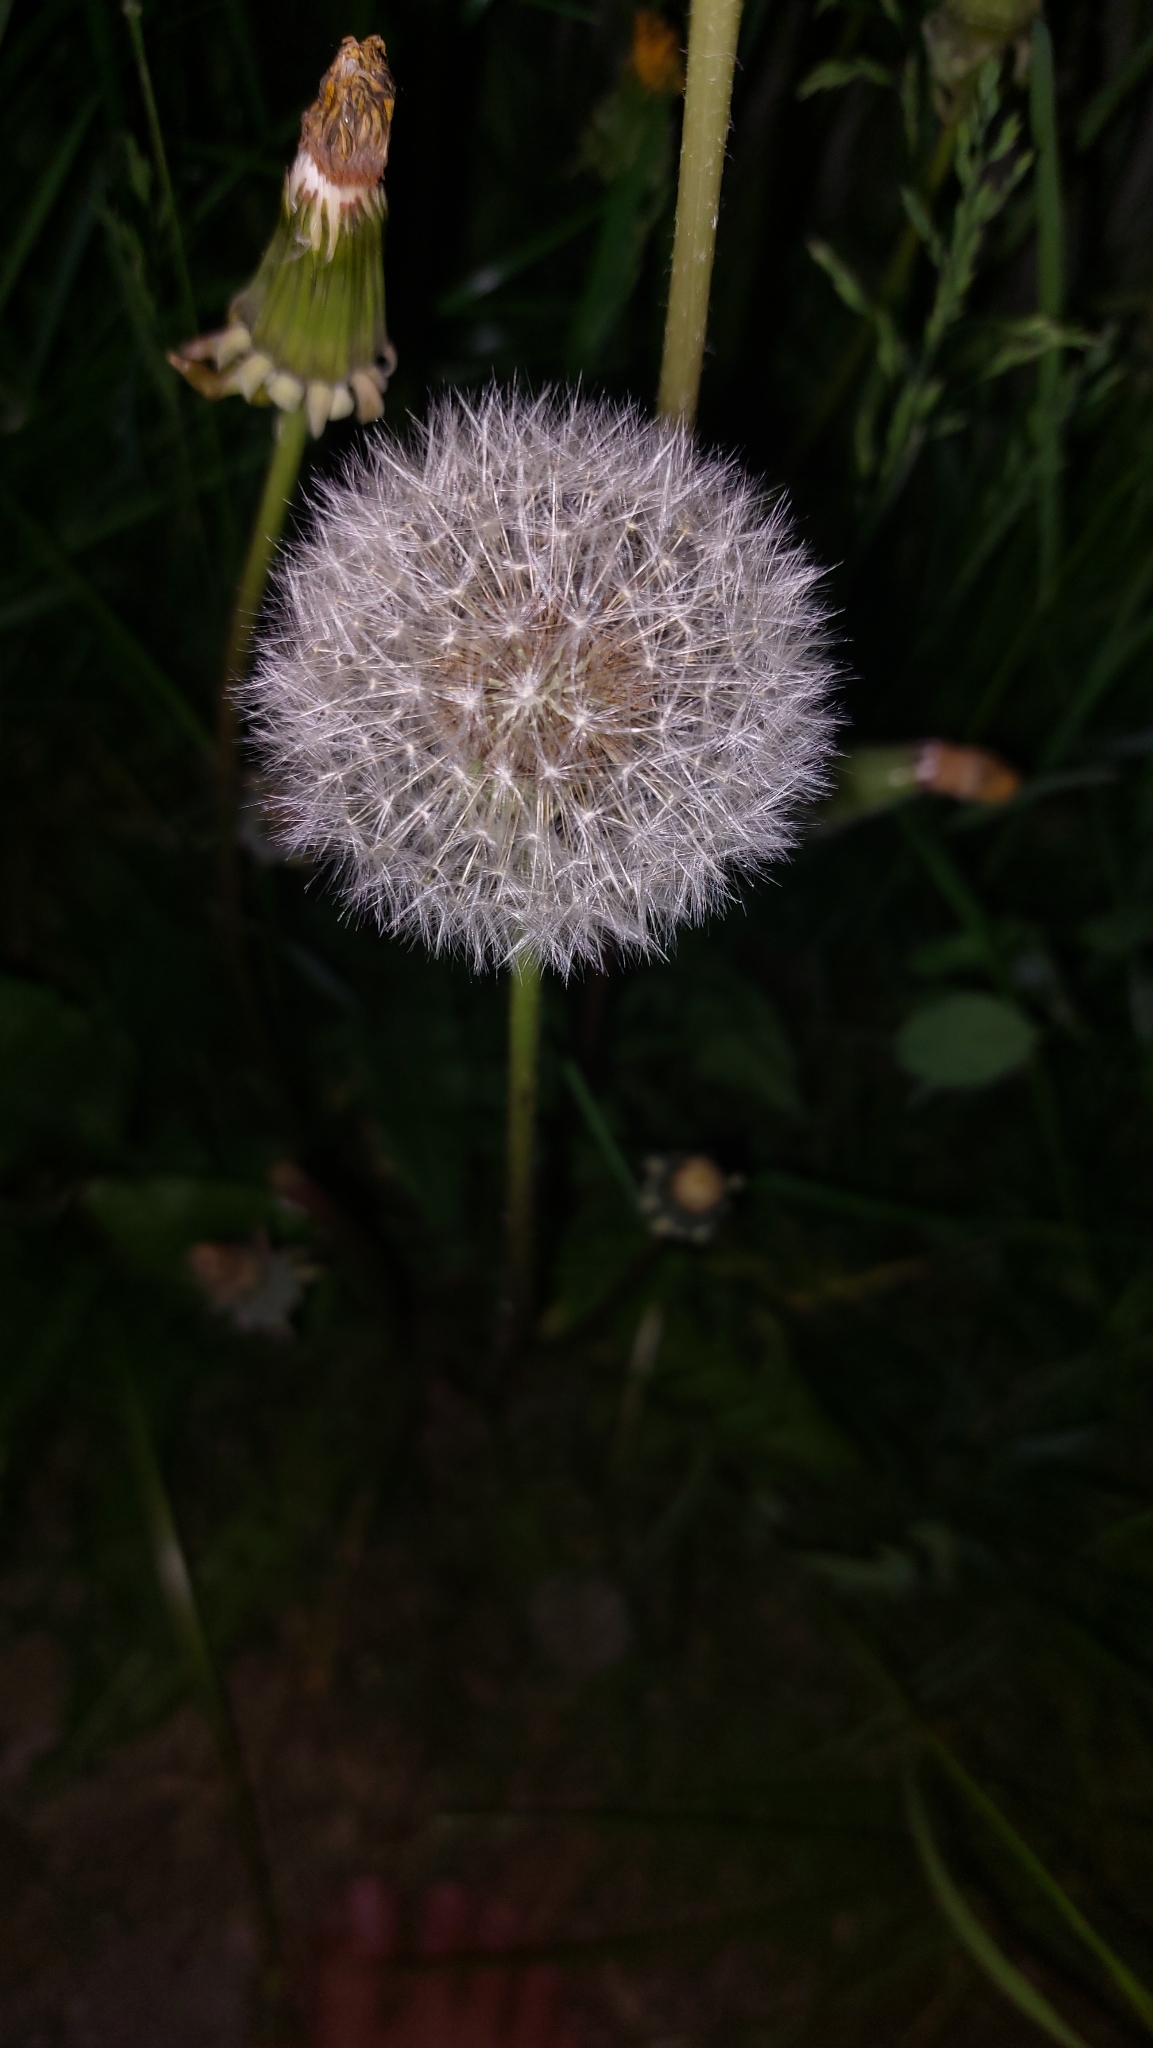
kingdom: Plantae
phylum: Tracheophyta
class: Magnoliopsida
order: Asterales
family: Asteraceae
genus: Taraxacum
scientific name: Taraxacum
